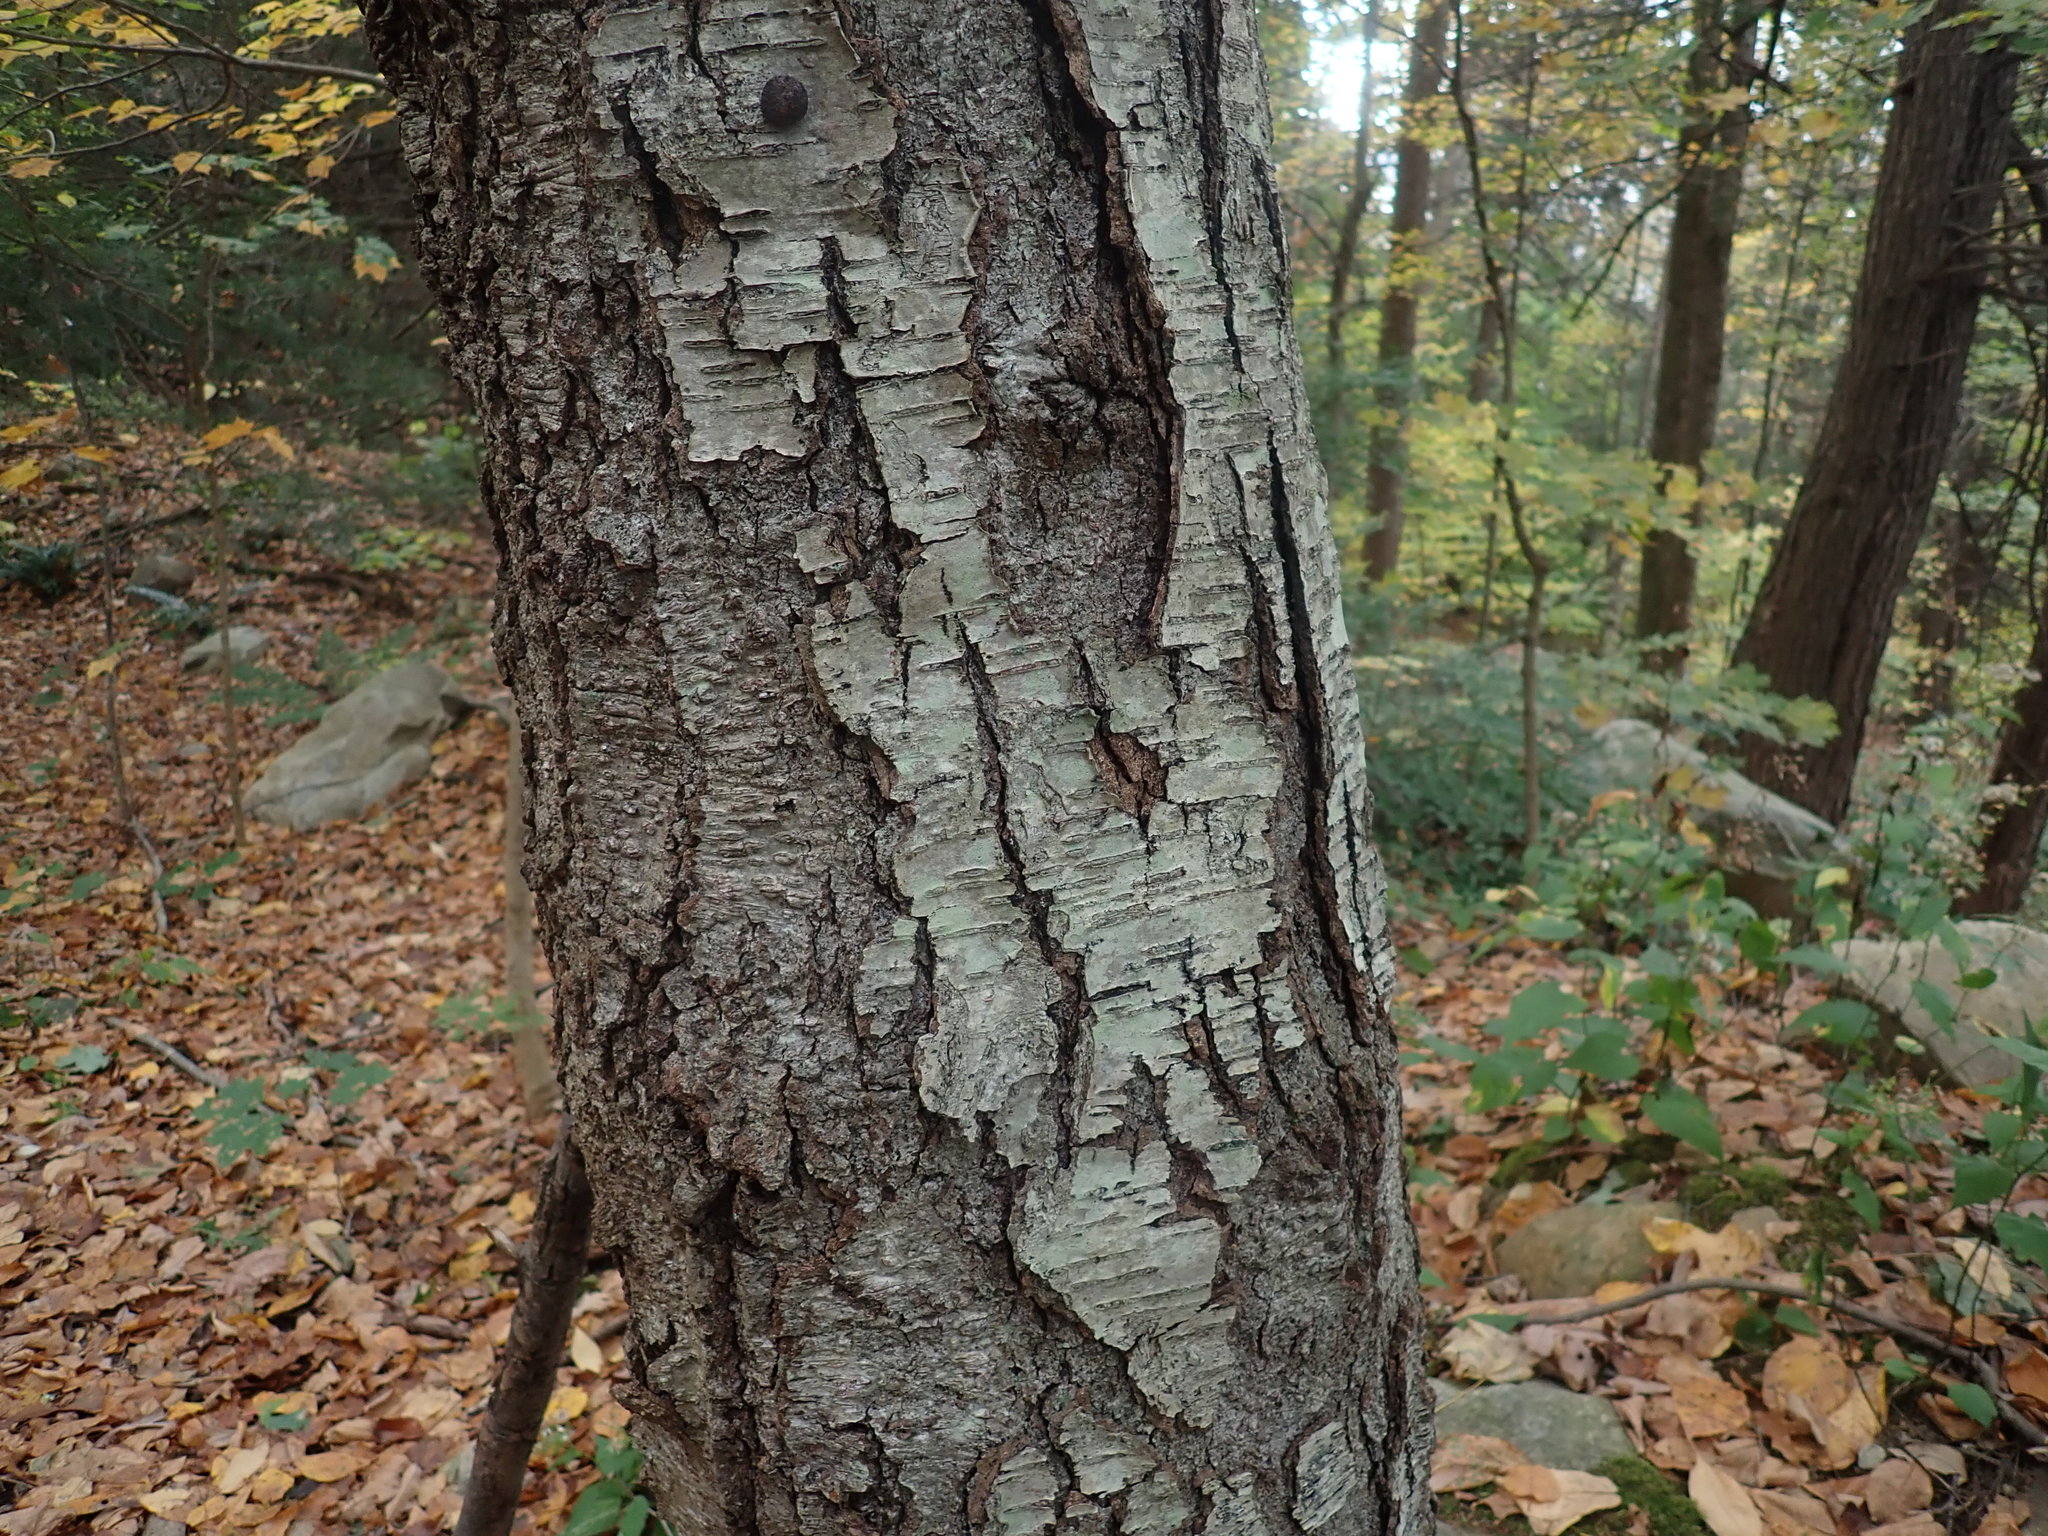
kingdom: Plantae
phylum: Tracheophyta
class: Magnoliopsida
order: Fagales
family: Betulaceae
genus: Betula
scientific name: Betula lenta
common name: Black birch
